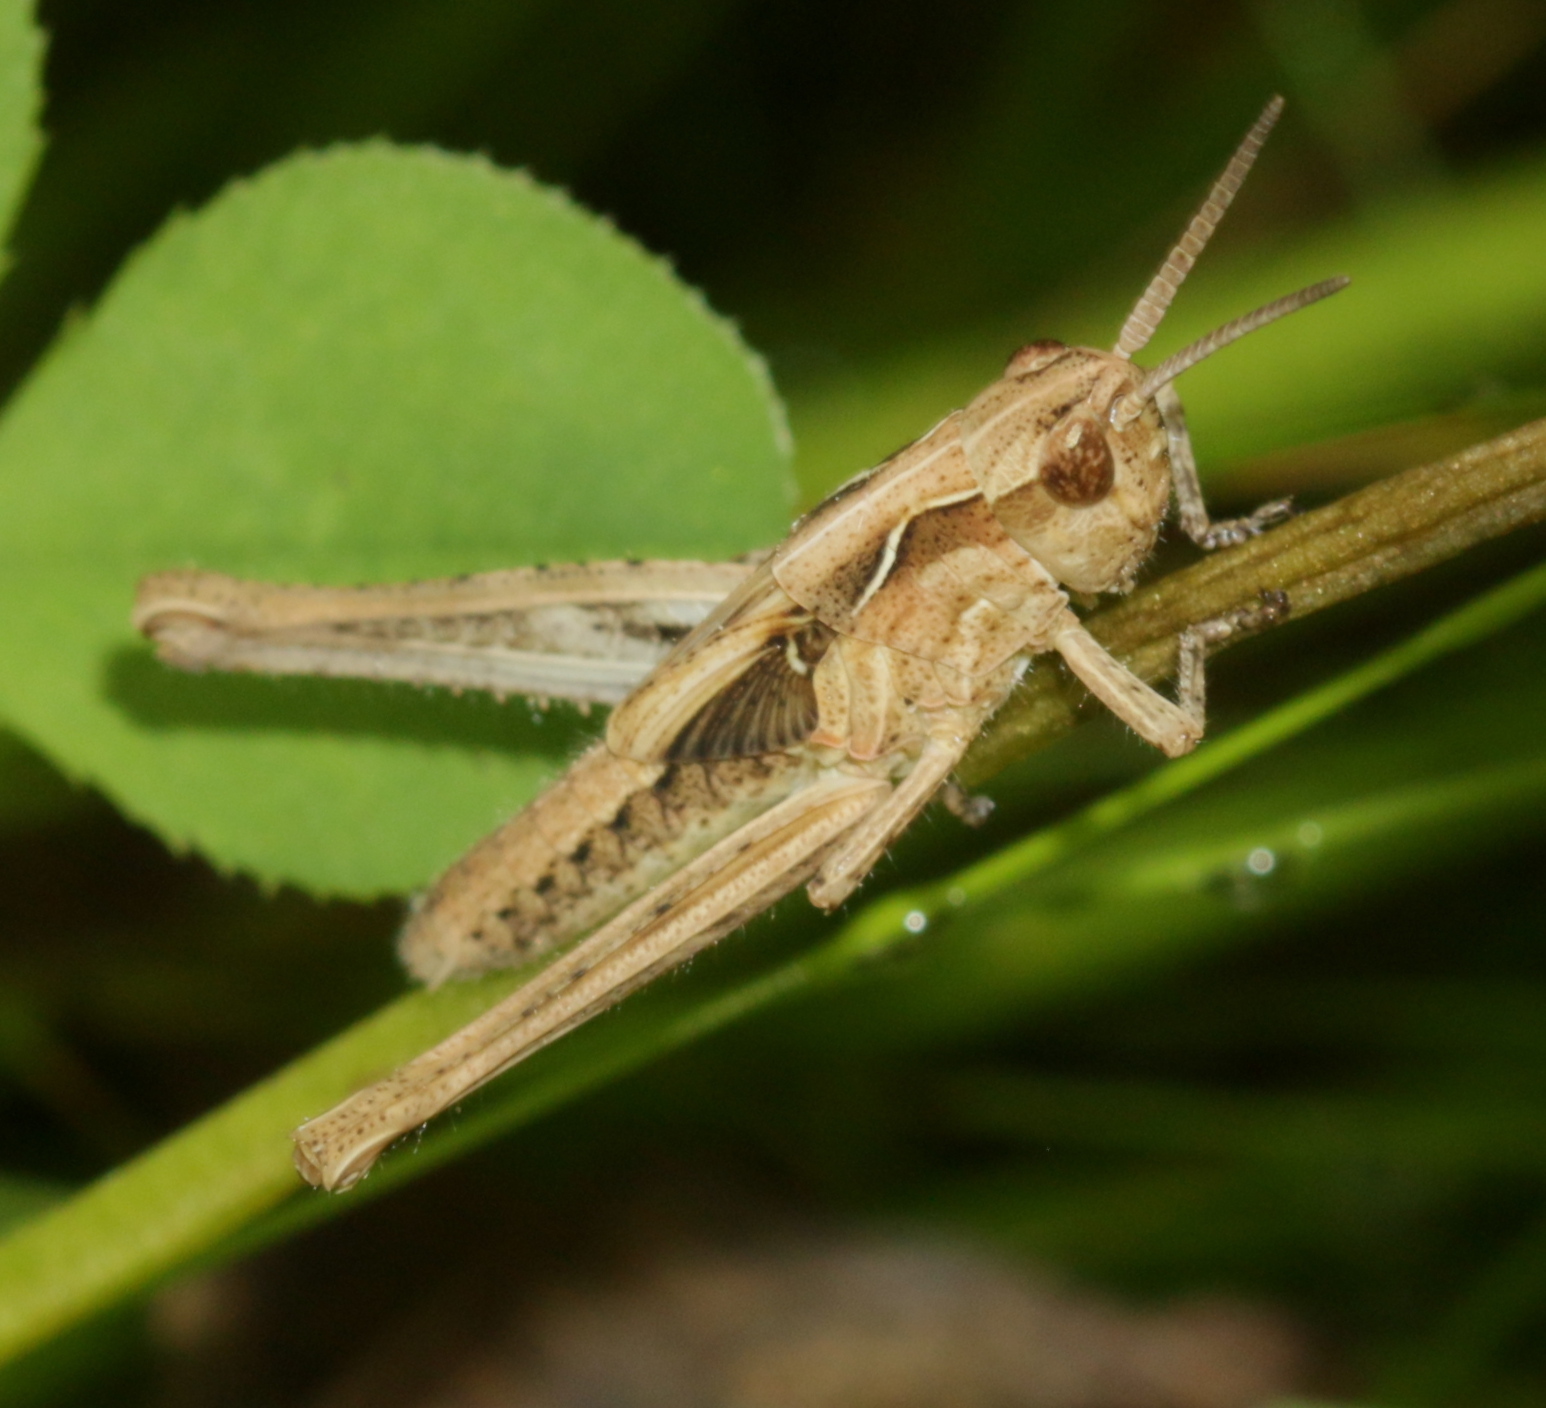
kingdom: Animalia
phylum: Arthropoda
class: Insecta
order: Orthoptera
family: Acrididae
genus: Chorthippus
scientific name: Chorthippus brunneus
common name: Field grasshopper
